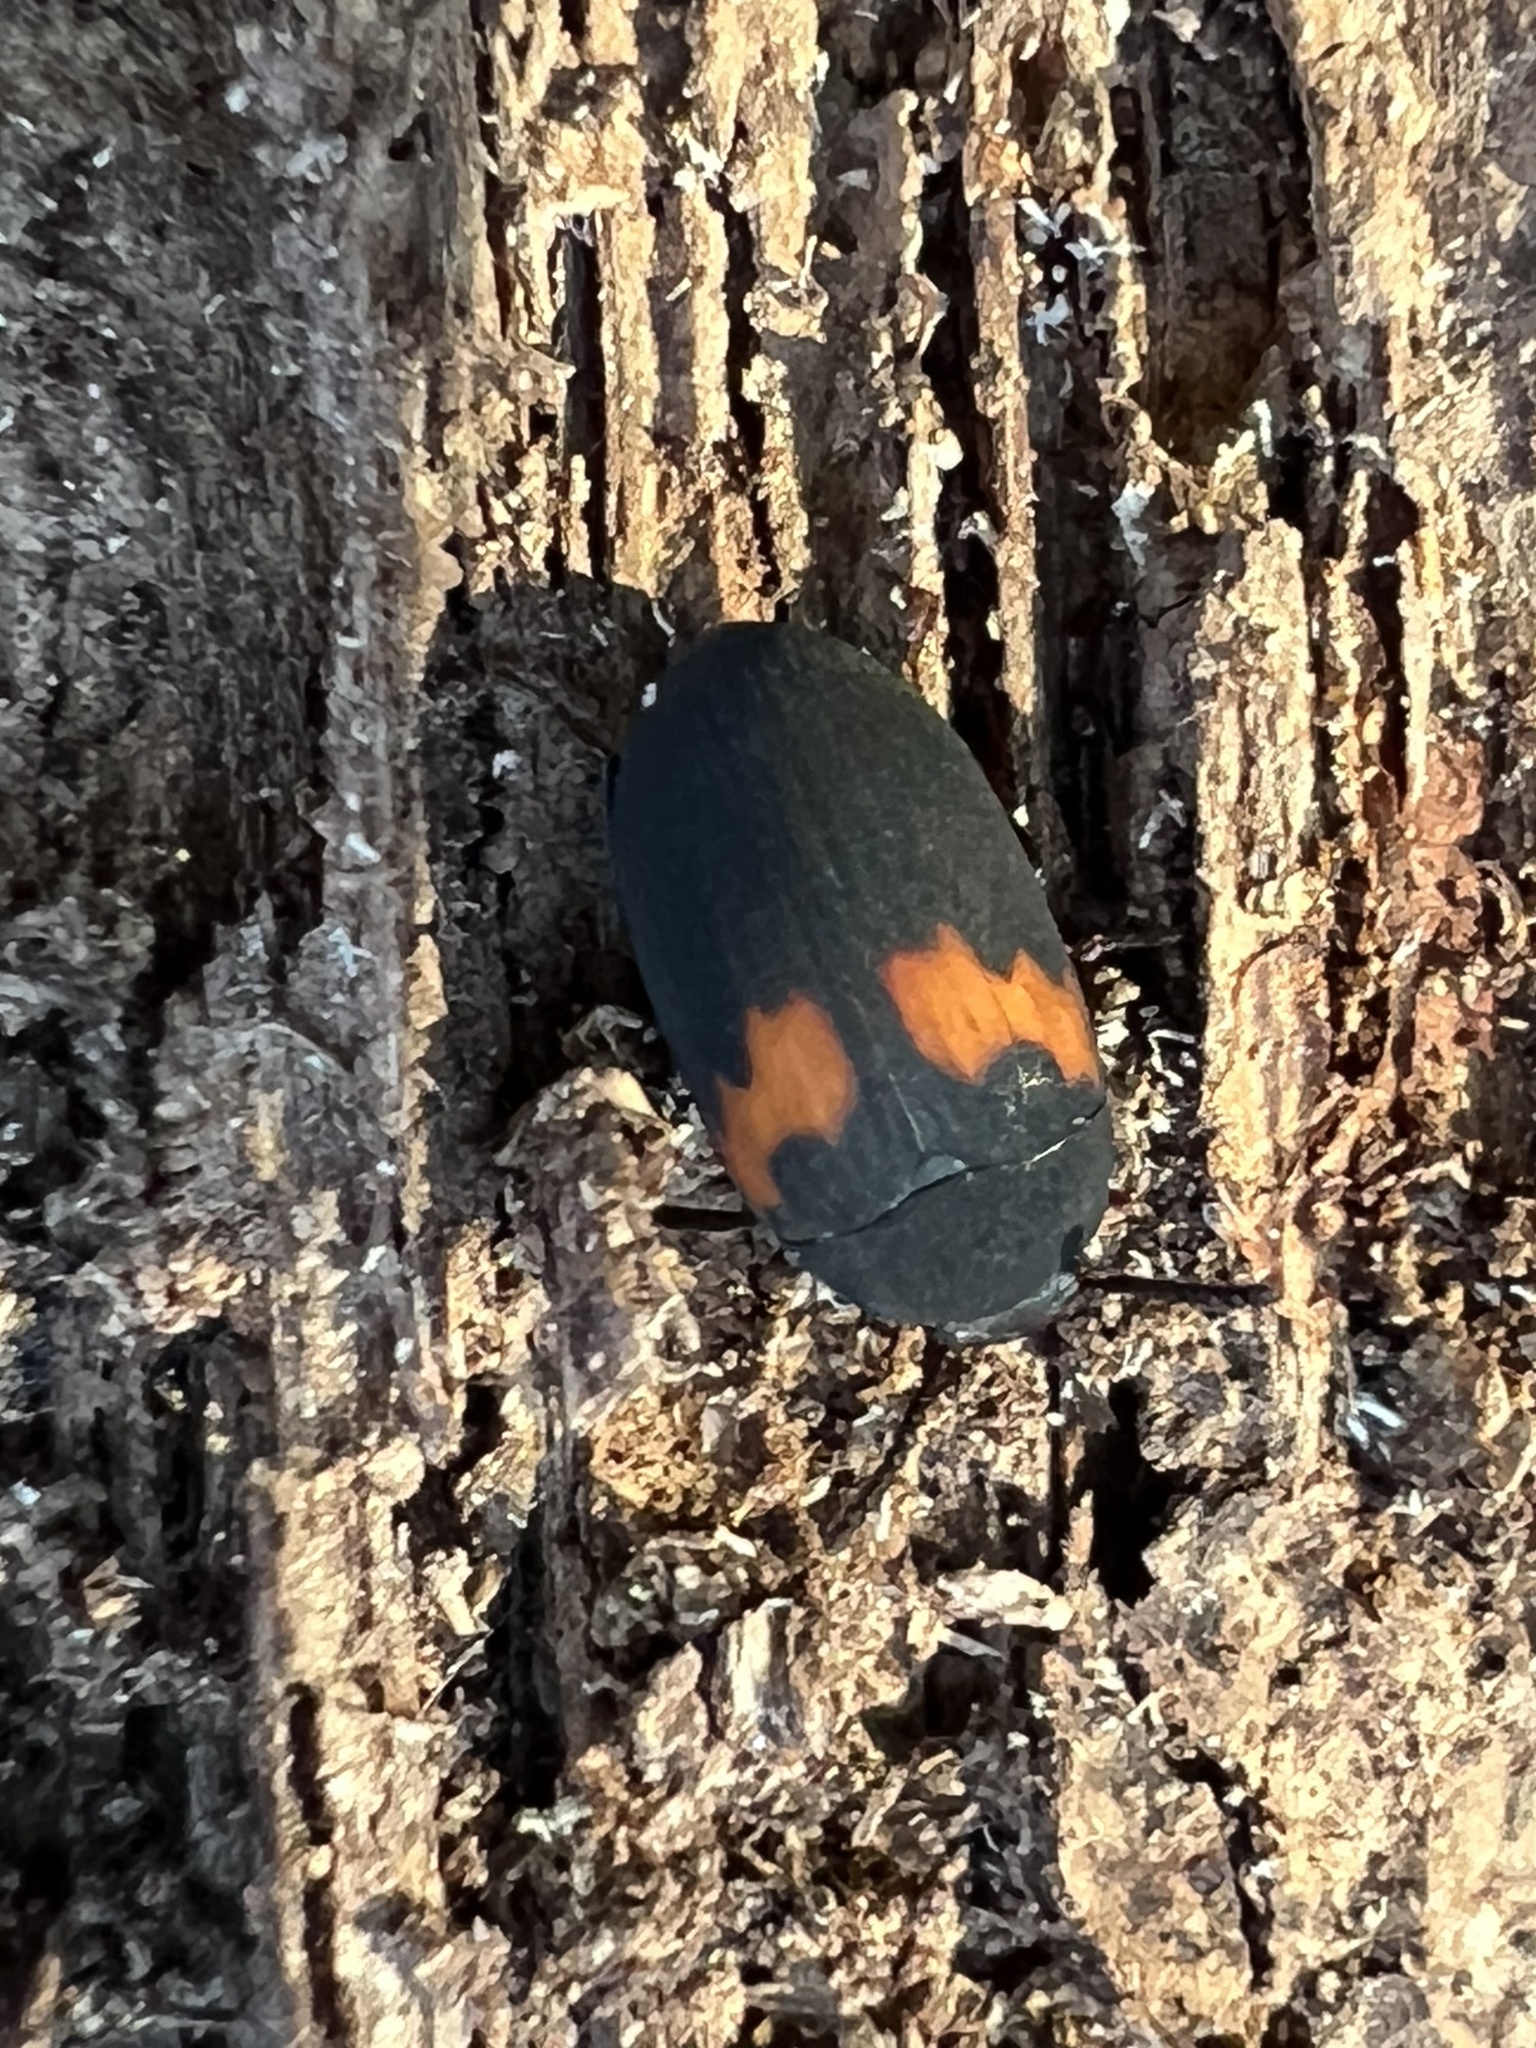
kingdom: Animalia
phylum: Arthropoda
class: Insecta
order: Coleoptera
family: Tenebrionidae
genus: Platydema
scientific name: Platydema elliptica
